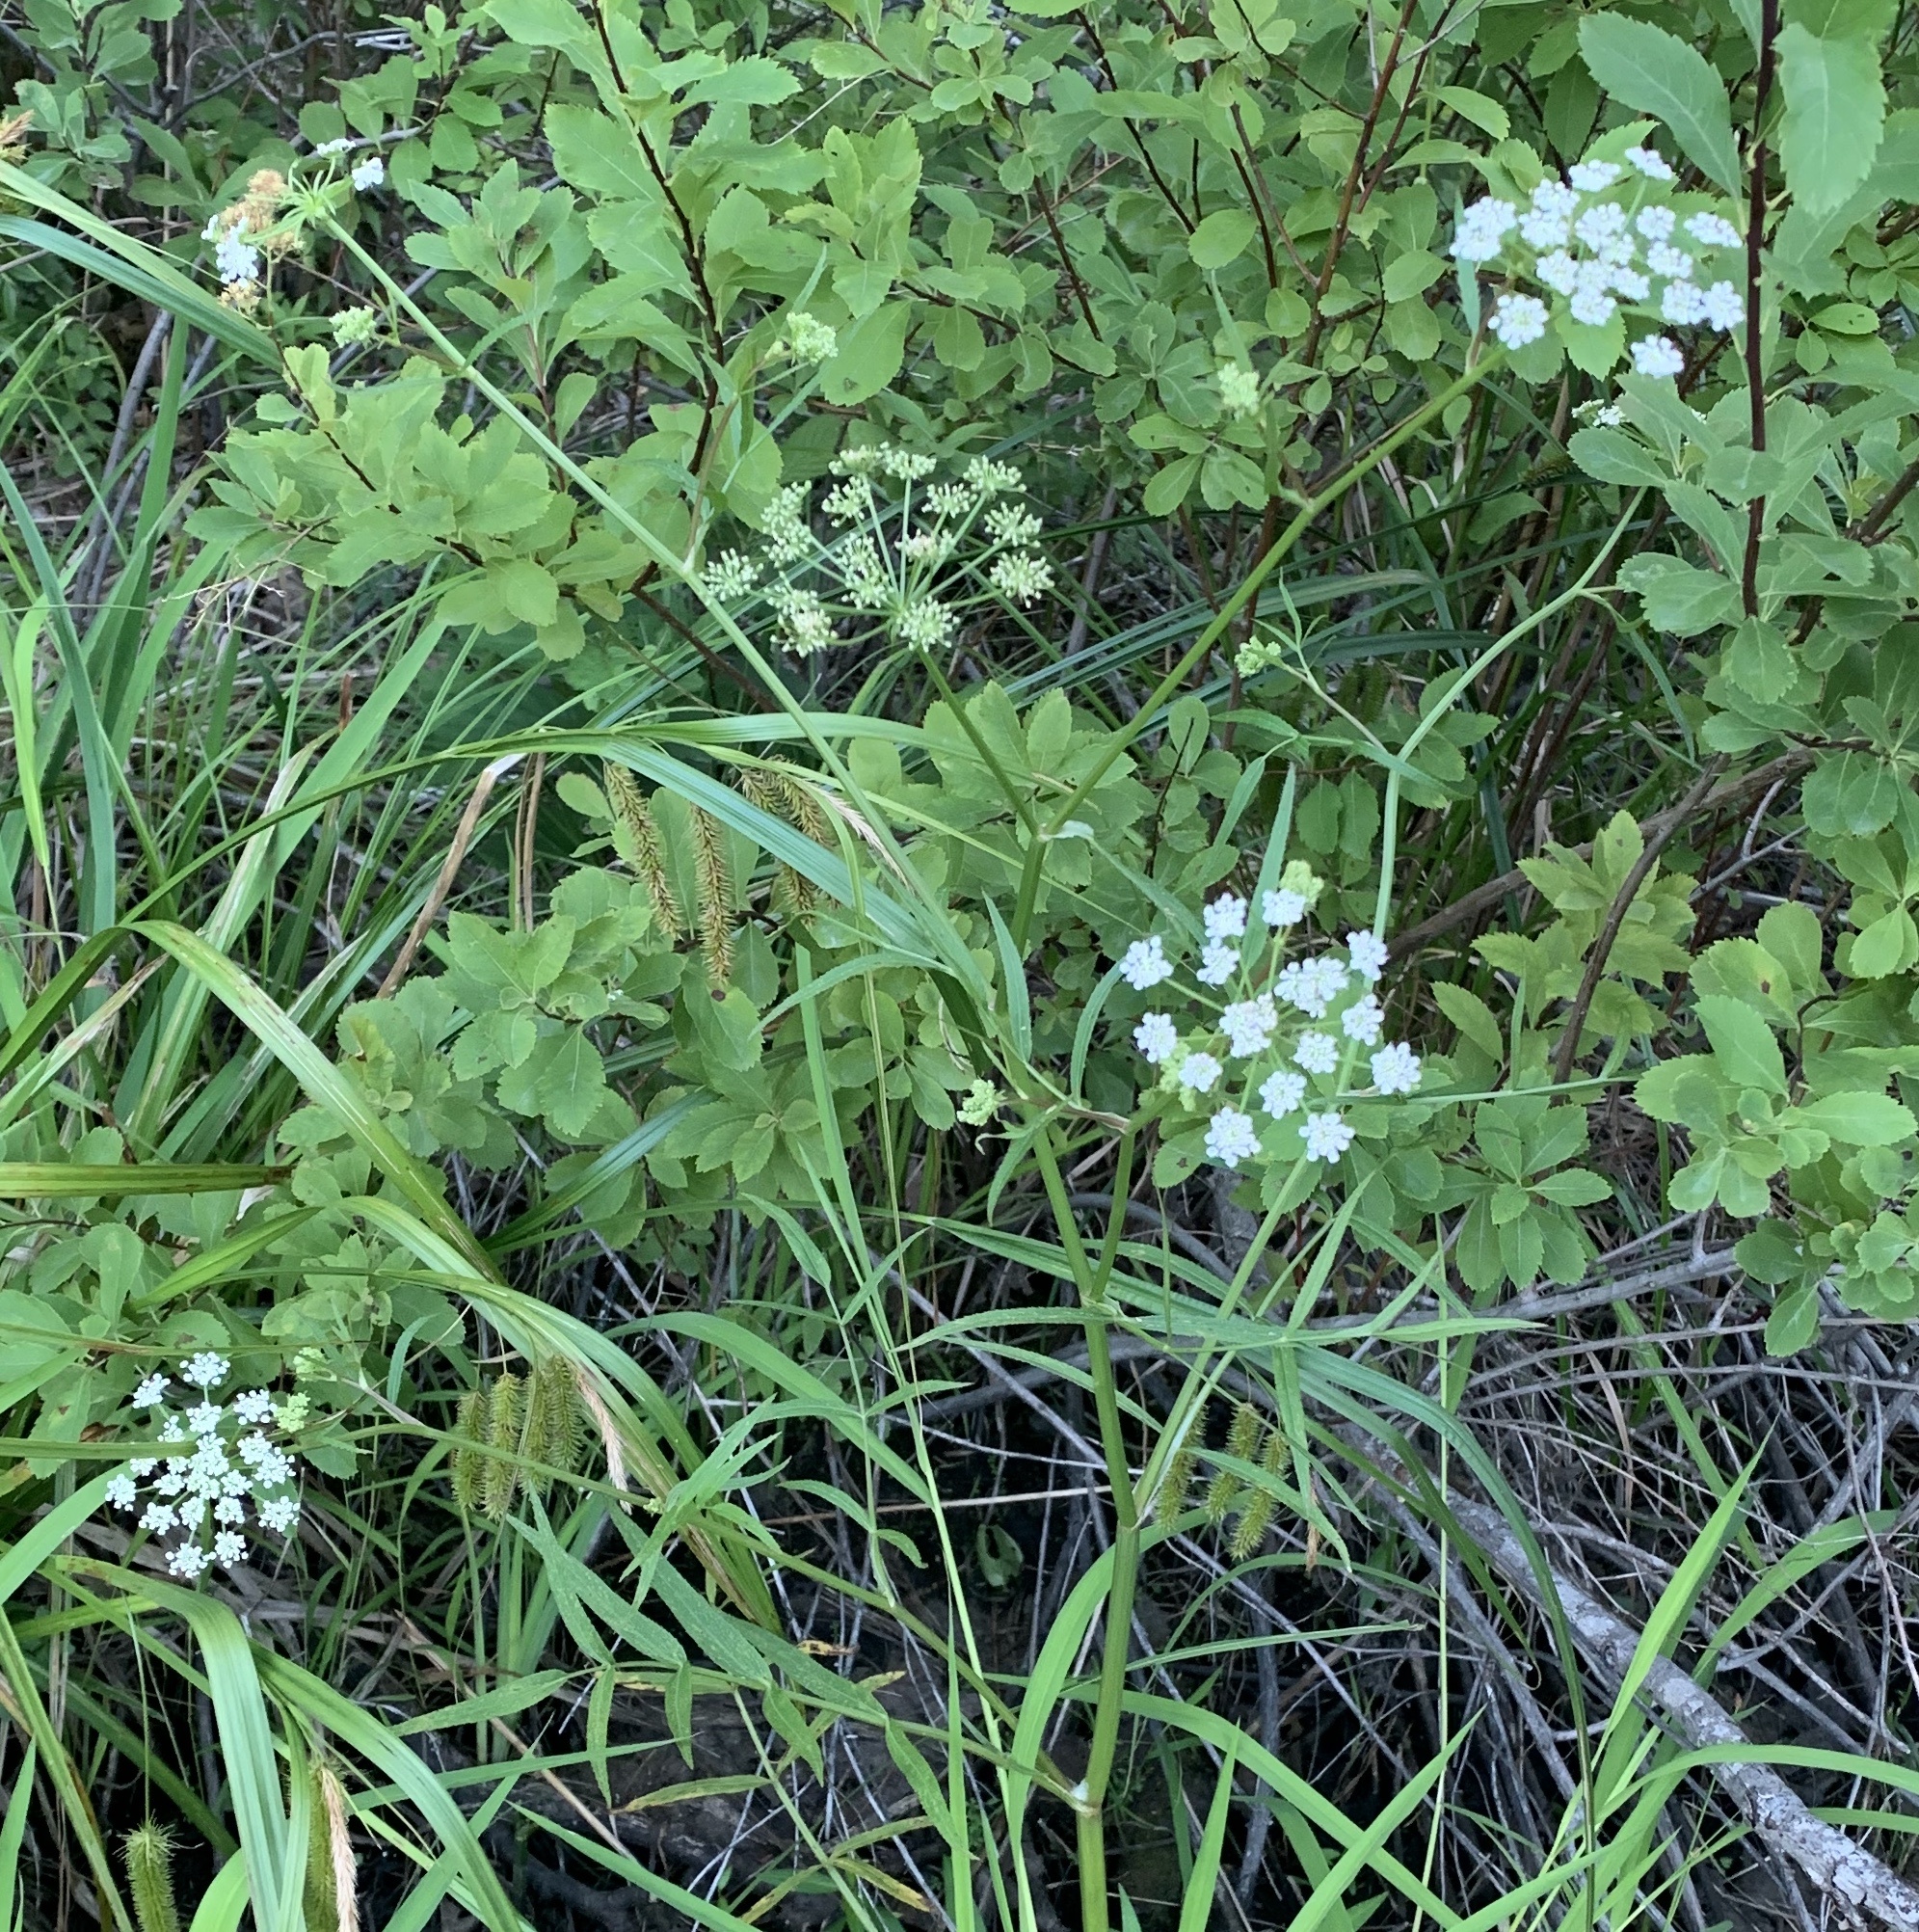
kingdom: Plantae
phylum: Tracheophyta
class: Magnoliopsida
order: Apiales
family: Apiaceae
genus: Sium
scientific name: Sium suave
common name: Hemlock water-parsnip
